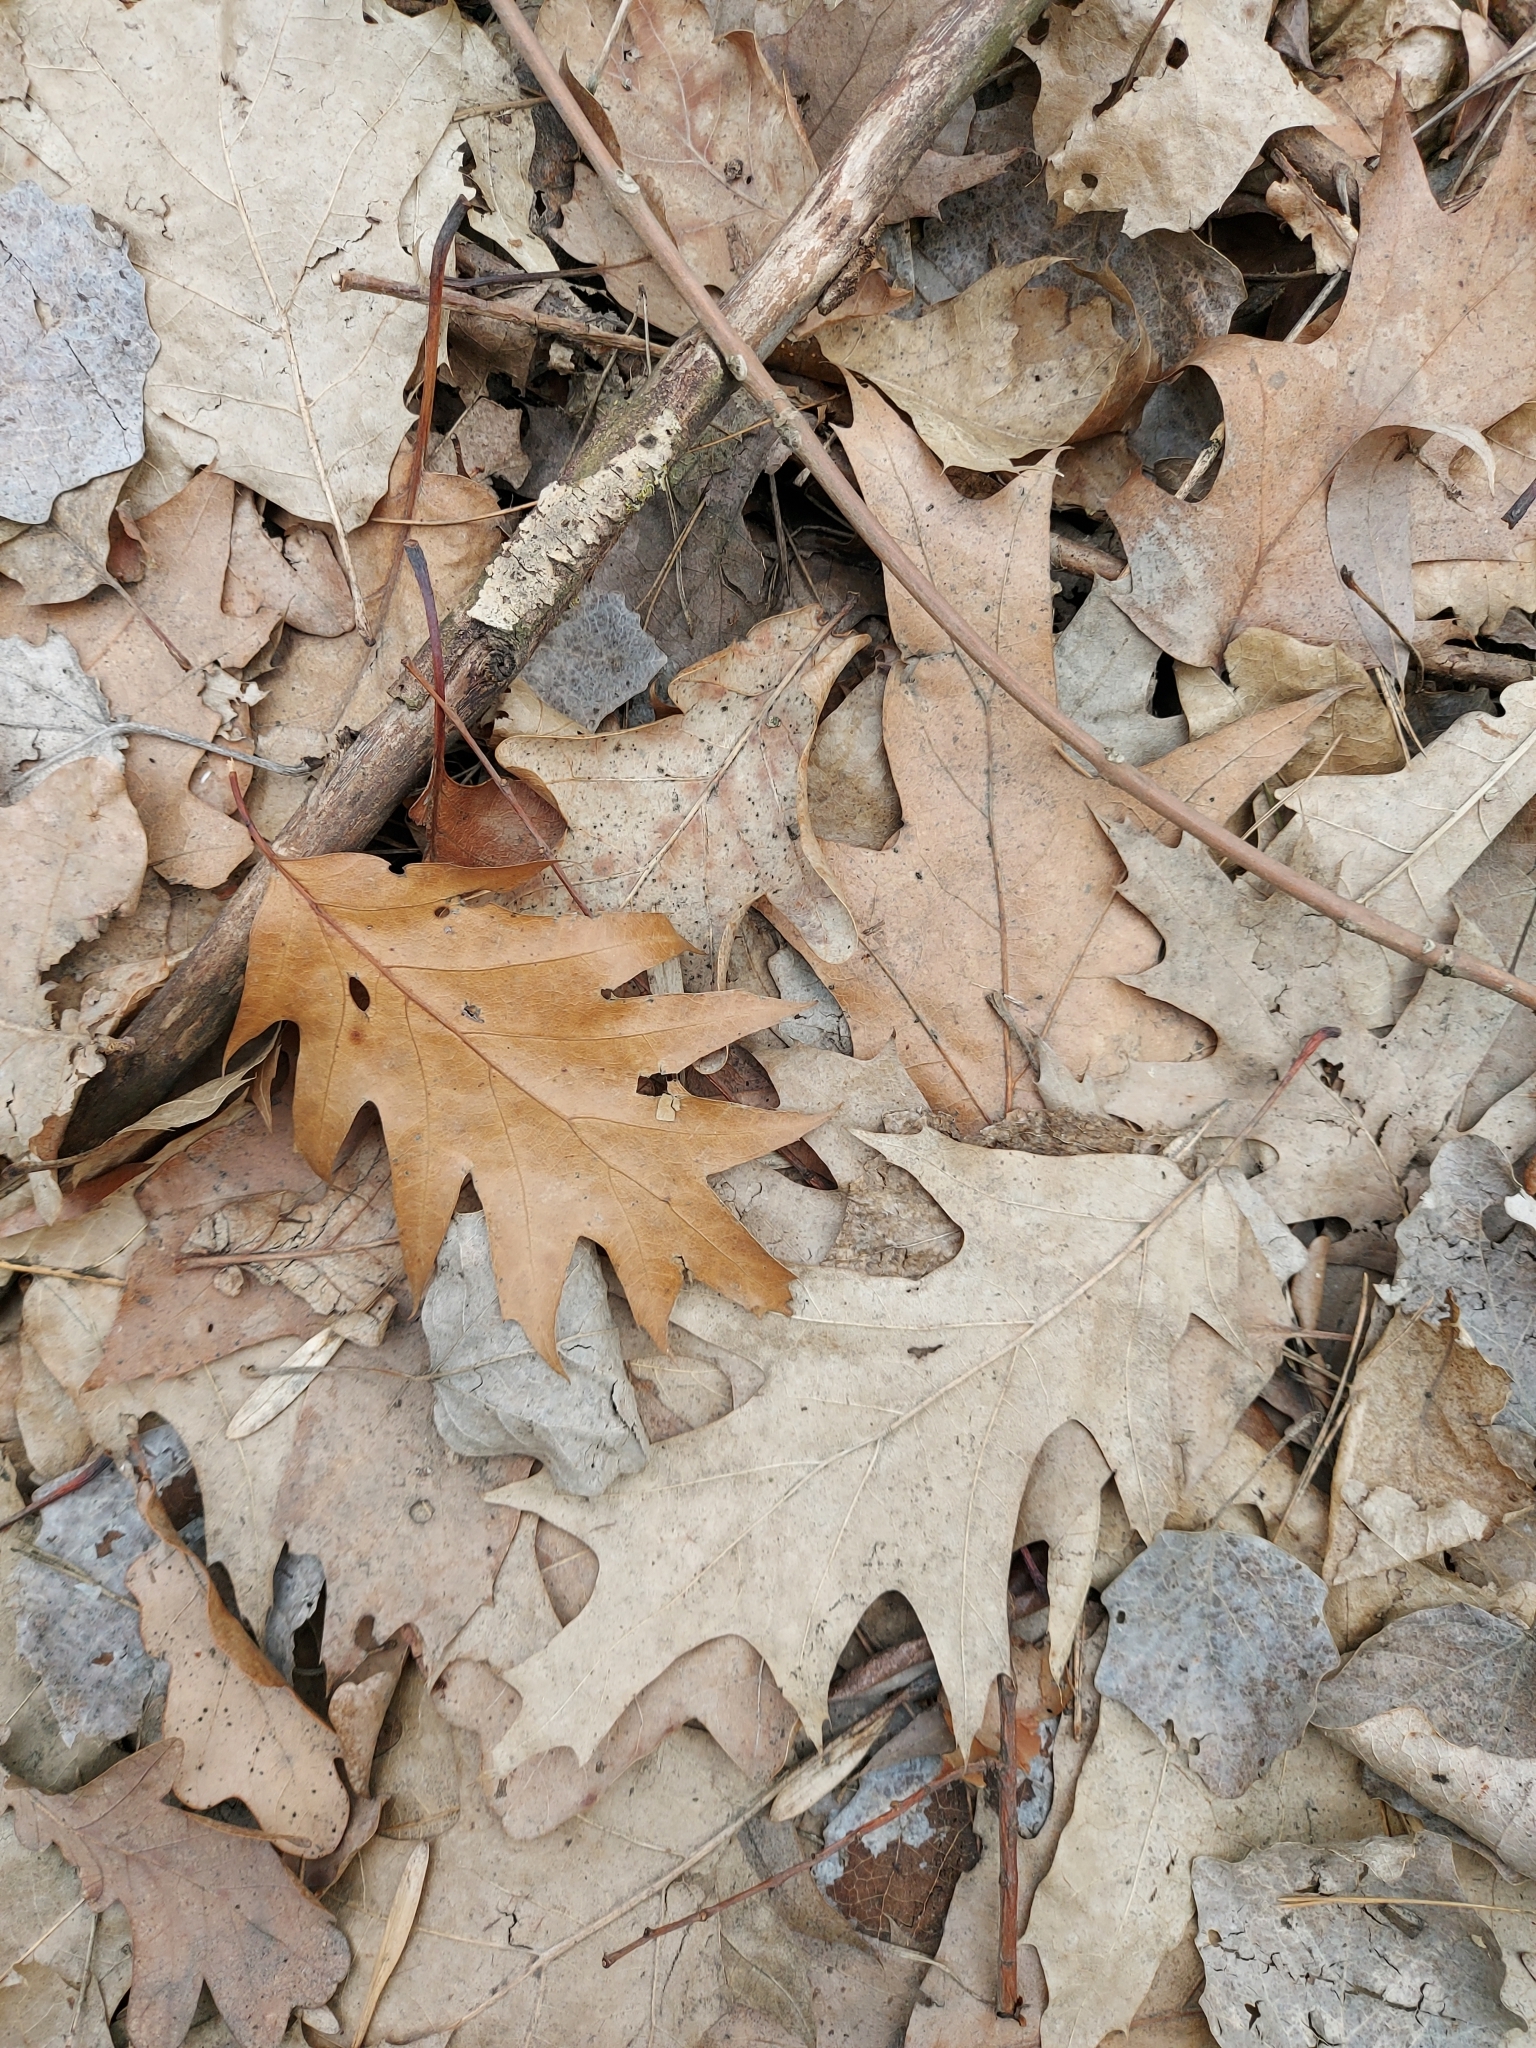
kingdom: Plantae
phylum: Tracheophyta
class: Magnoliopsida
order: Fagales
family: Fagaceae
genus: Quercus
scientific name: Quercus rubra
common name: Red oak
